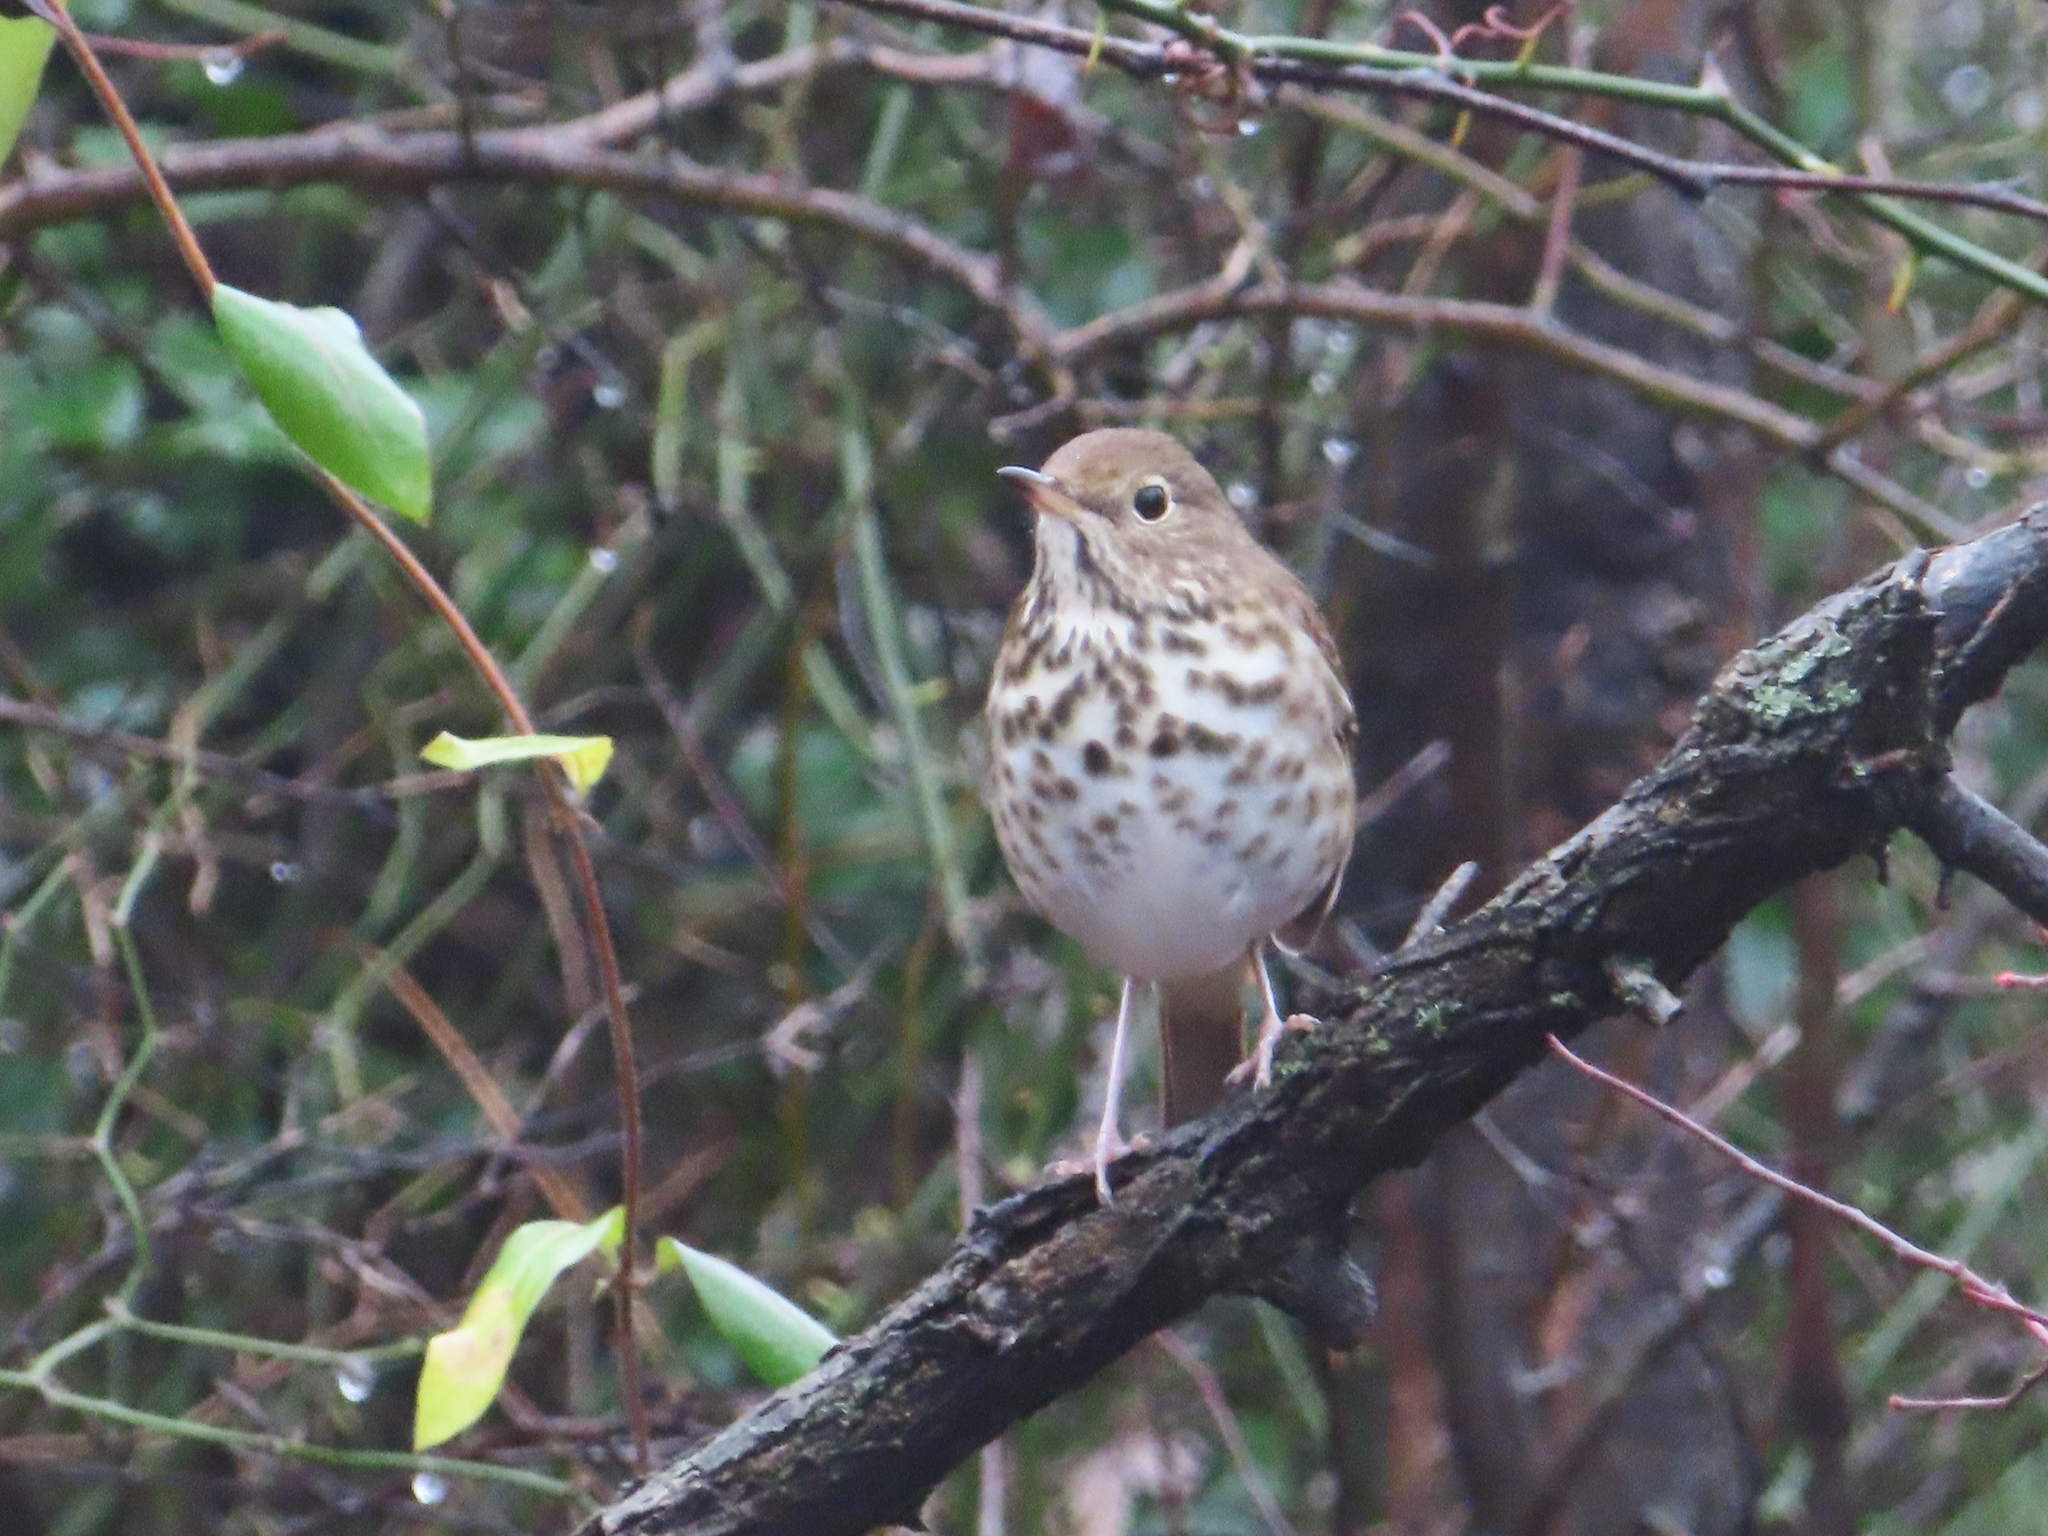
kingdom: Animalia
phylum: Chordata
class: Aves
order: Passeriformes
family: Turdidae
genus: Catharus
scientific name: Catharus guttatus
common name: Hermit thrush
